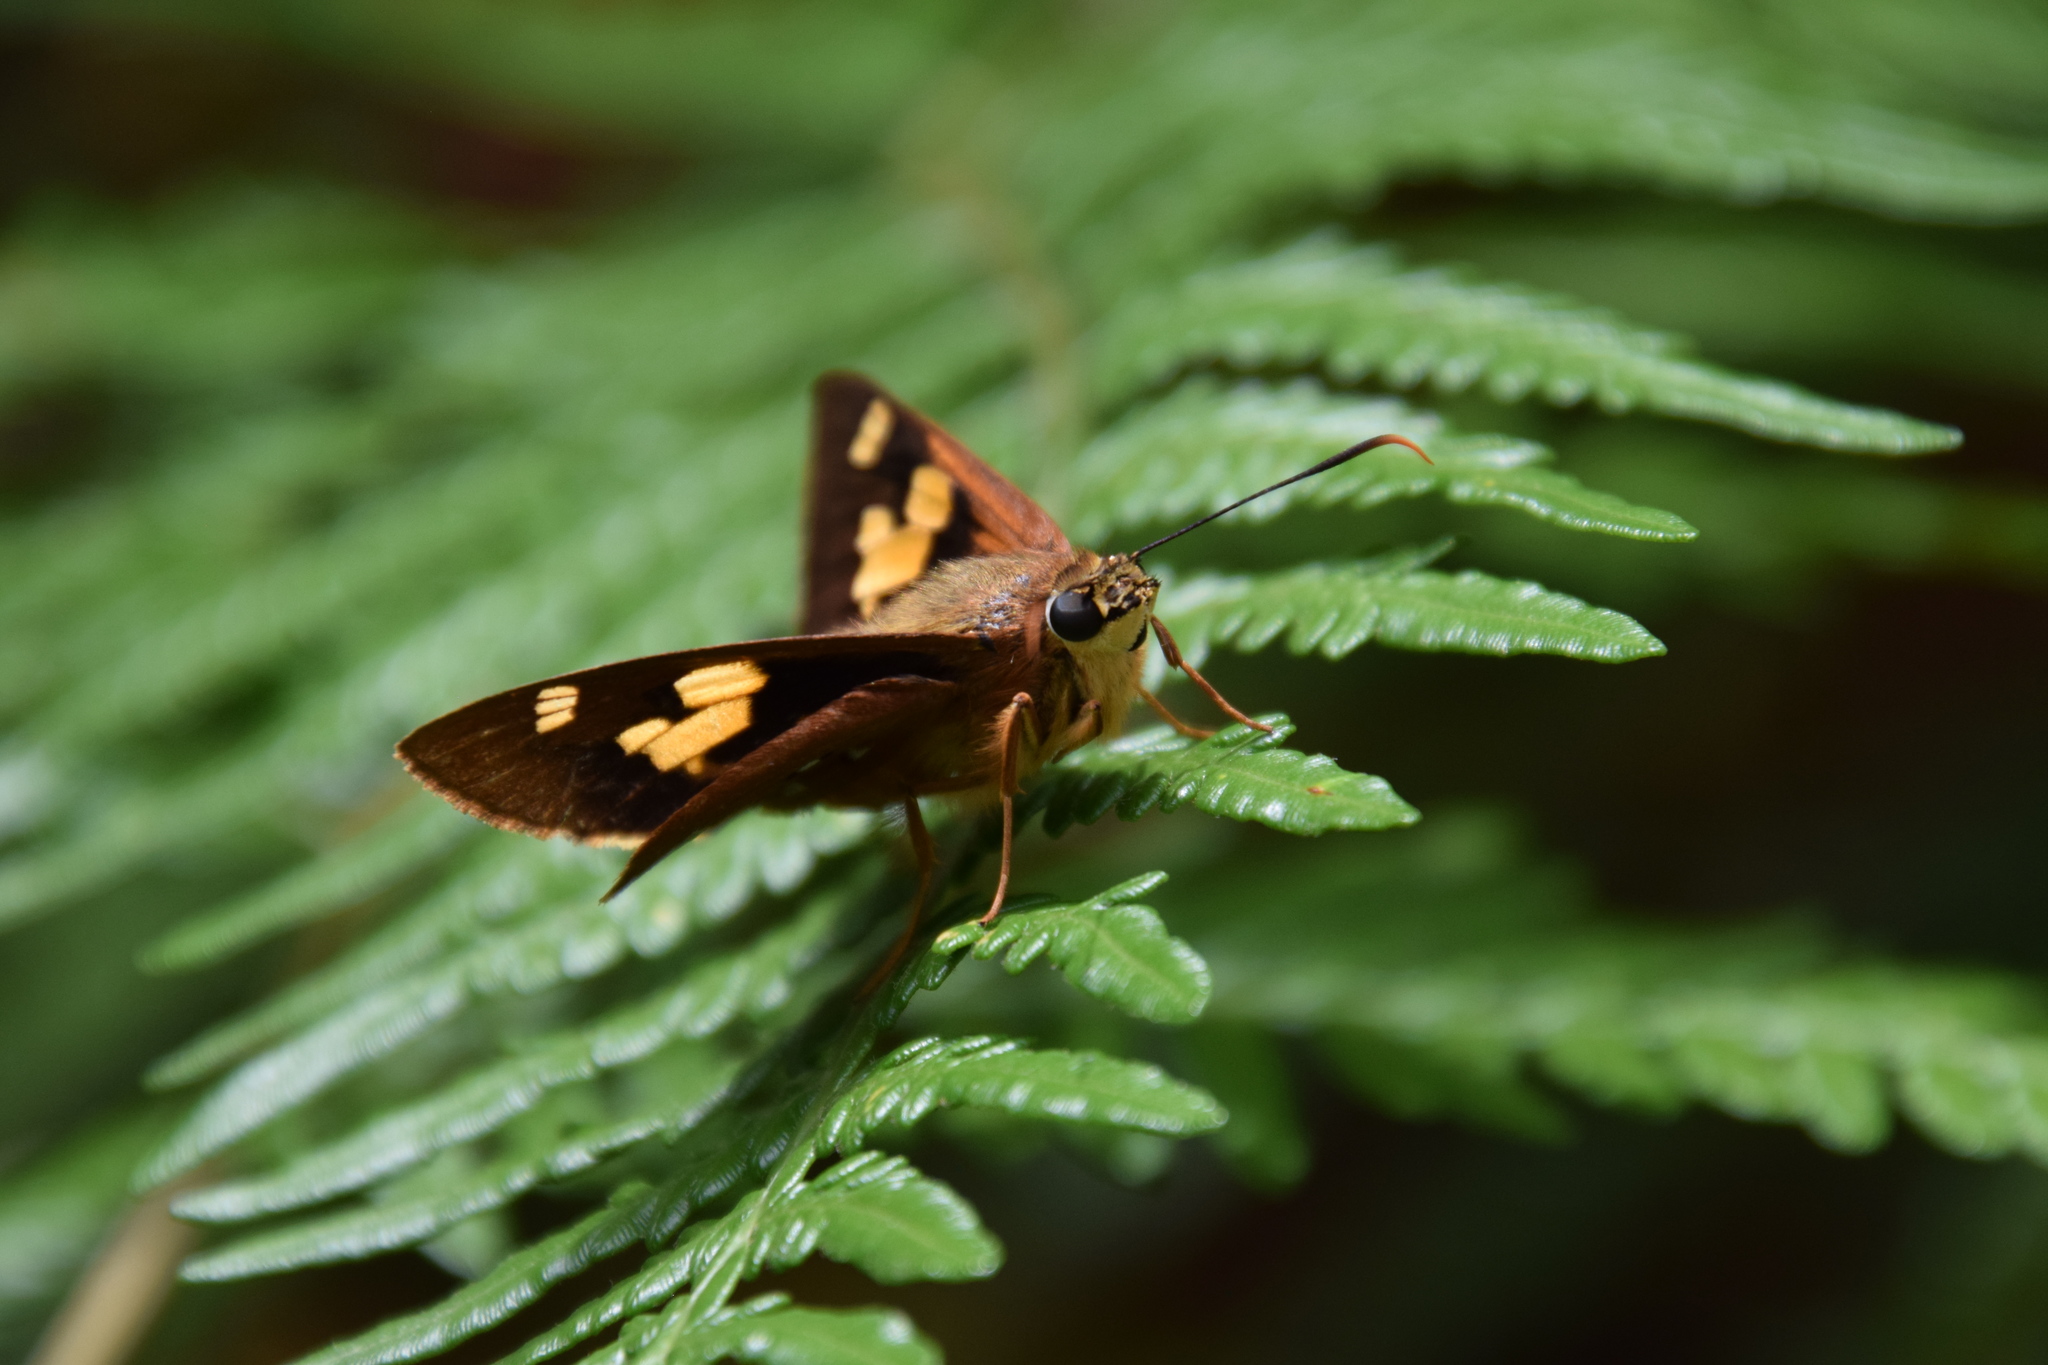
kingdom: Animalia
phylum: Arthropoda
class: Insecta
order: Lepidoptera
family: Hesperiidae
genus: Trapezites
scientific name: Trapezites symmomus
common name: Splendid ochre
